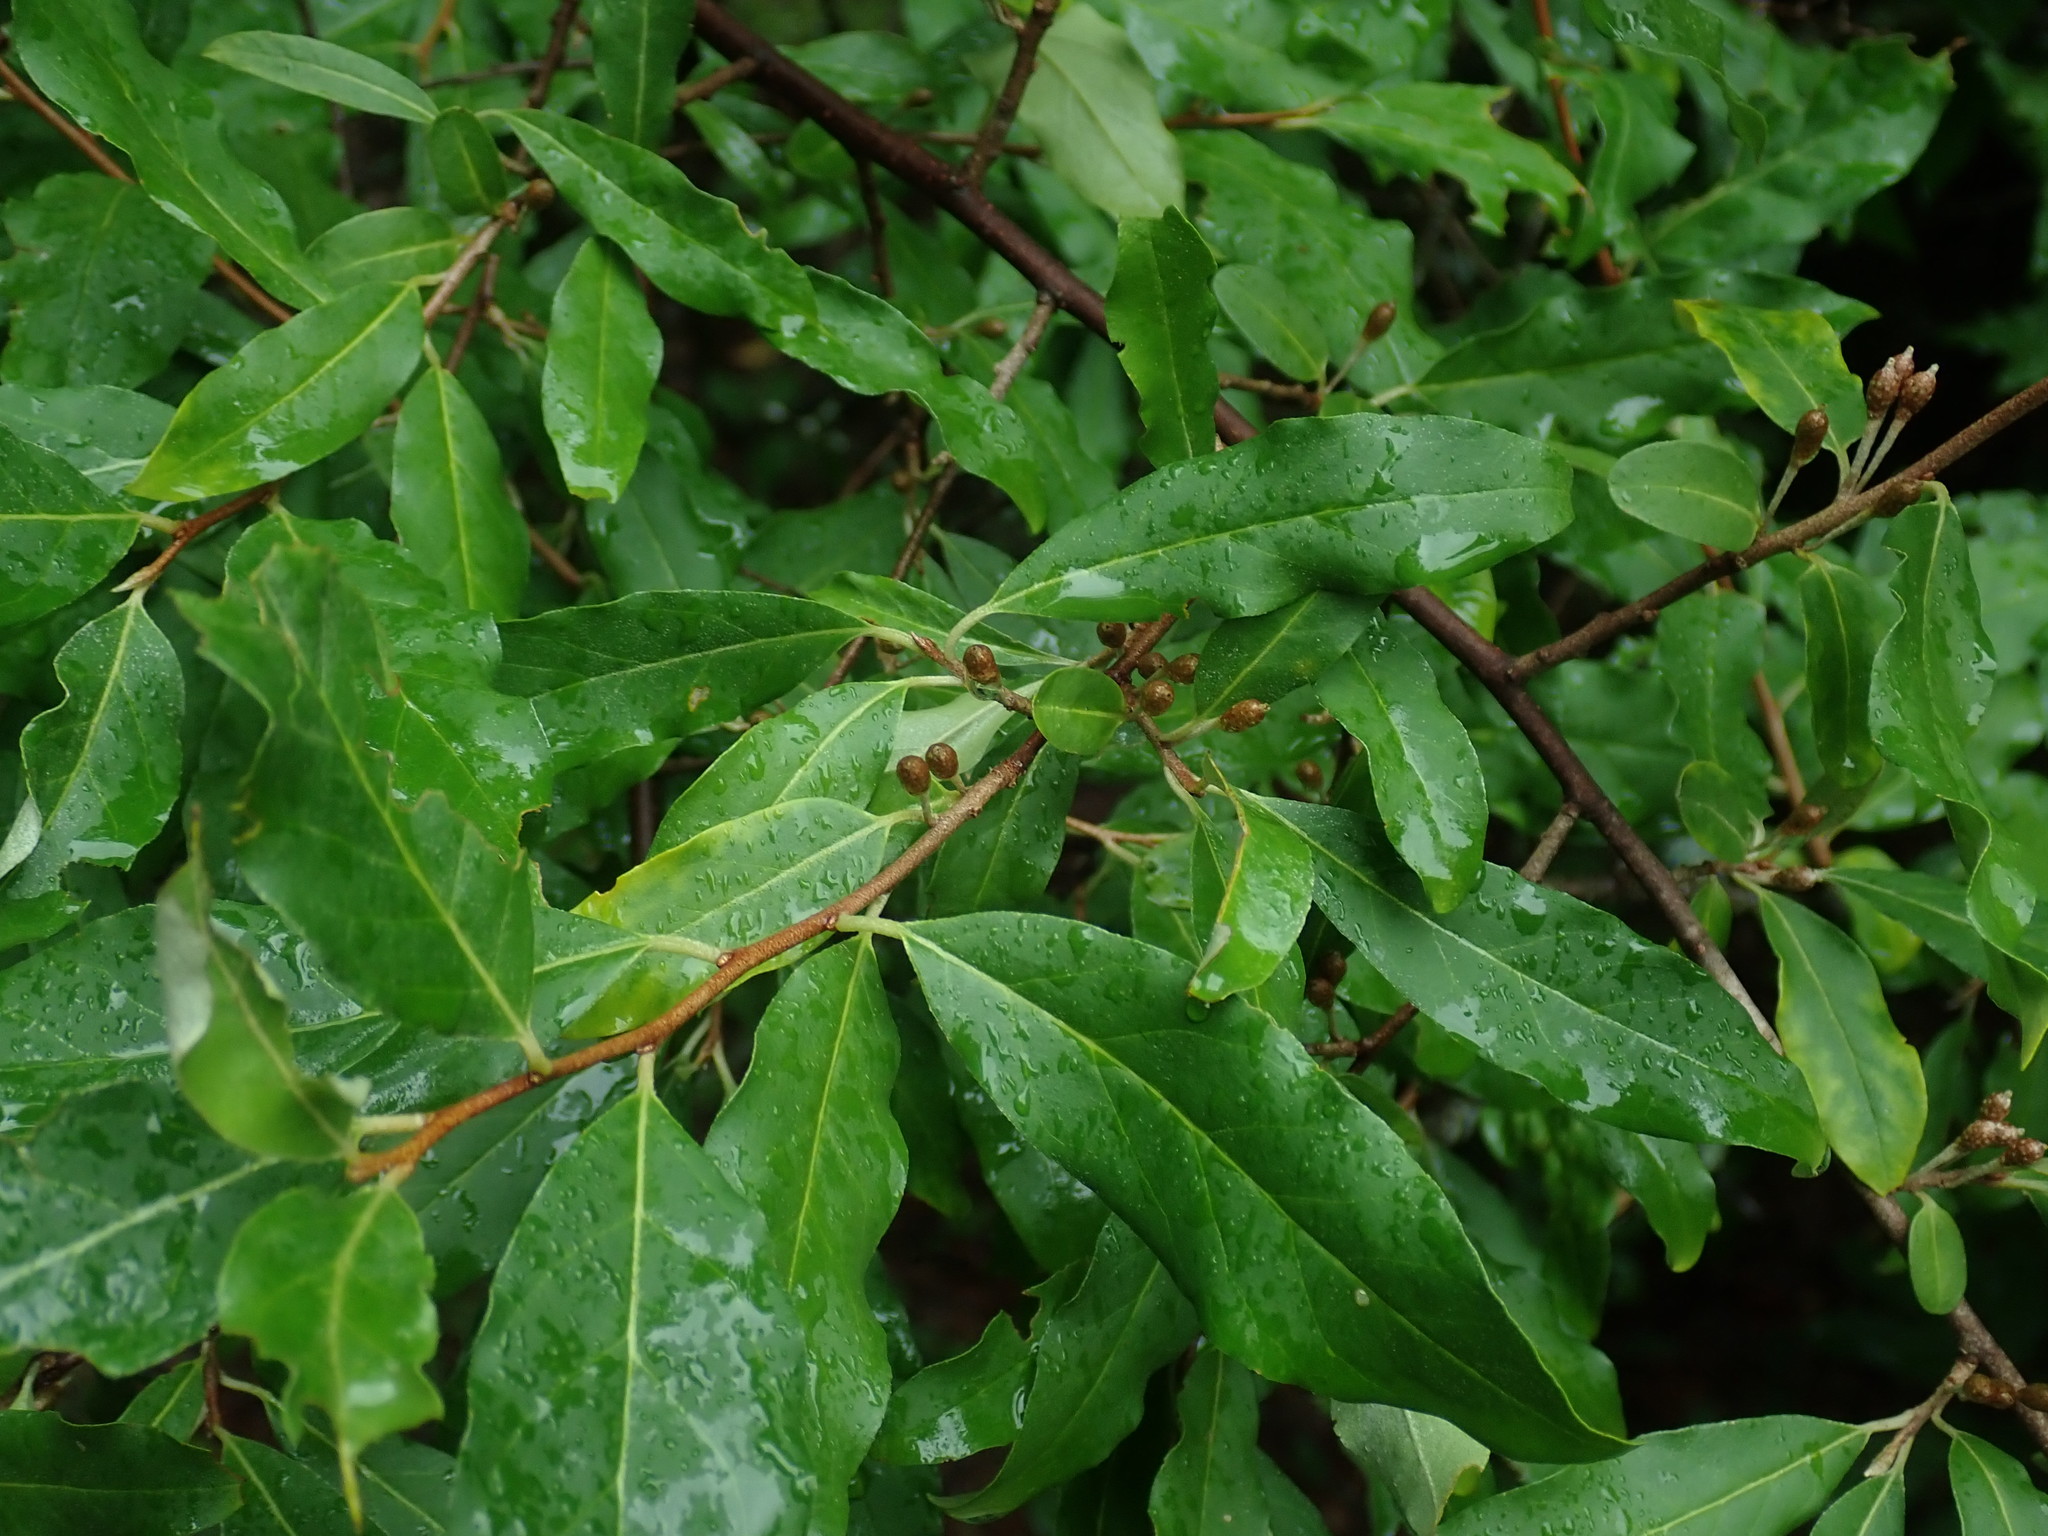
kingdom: Plantae
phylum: Tracheophyta
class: Magnoliopsida
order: Rosales
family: Elaeagnaceae
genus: Elaeagnus
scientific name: Elaeagnus umbellata
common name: Autumn olive
